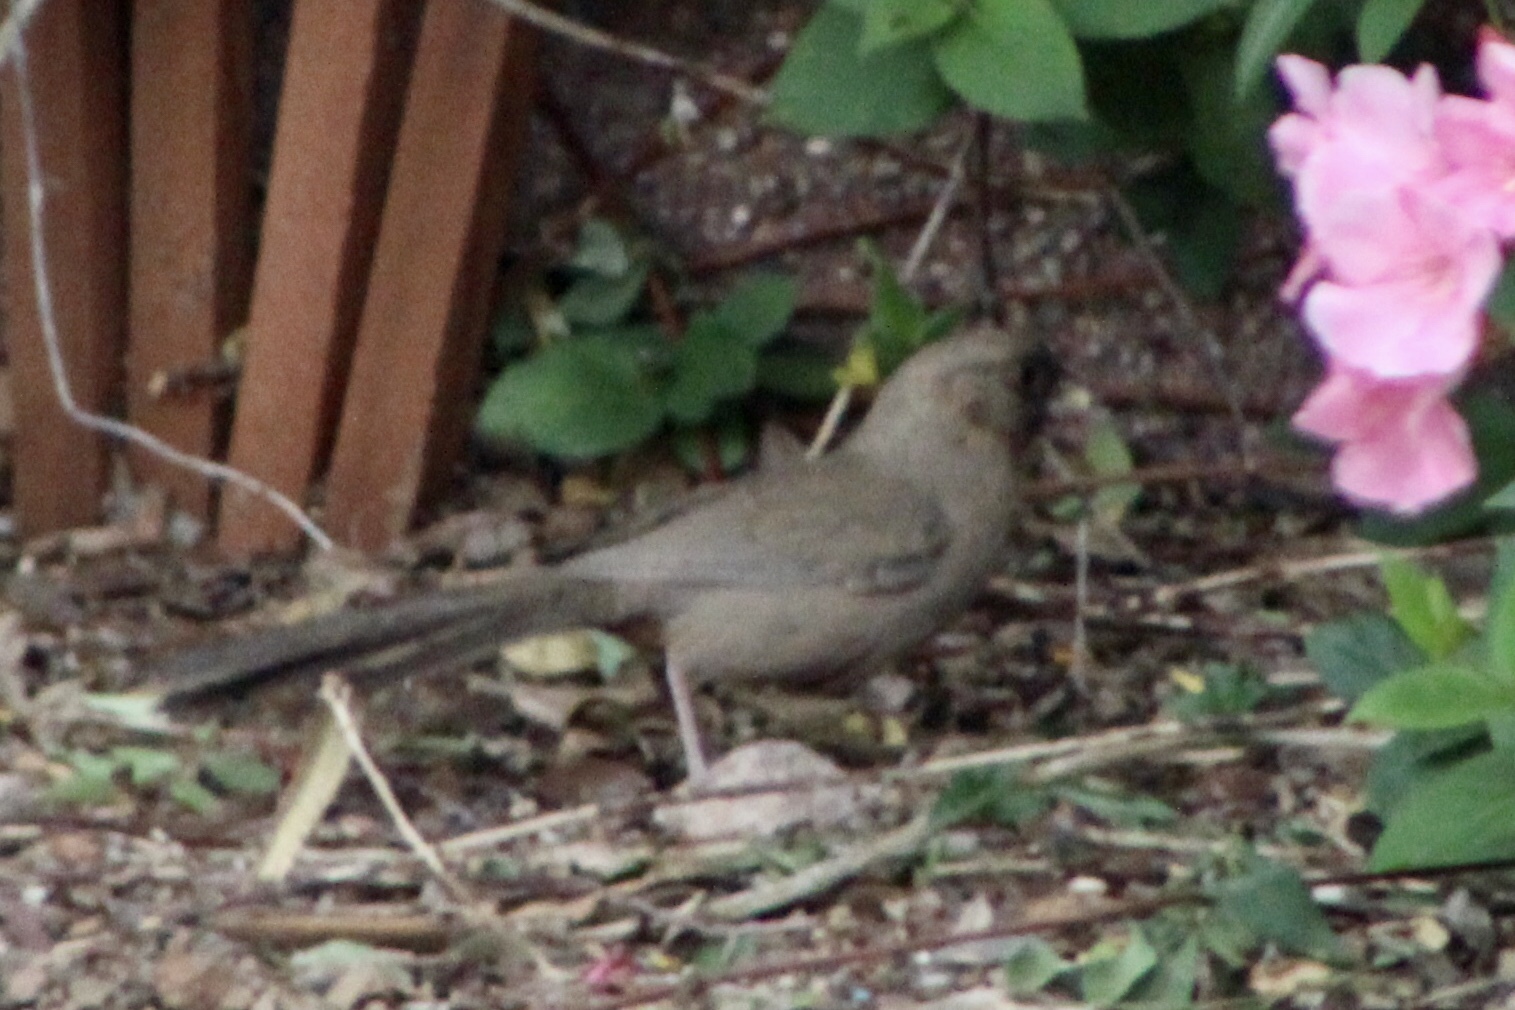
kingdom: Animalia
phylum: Chordata
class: Aves
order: Passeriformes
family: Passerellidae
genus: Melozone
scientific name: Melozone aberti
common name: Abert's towhee
